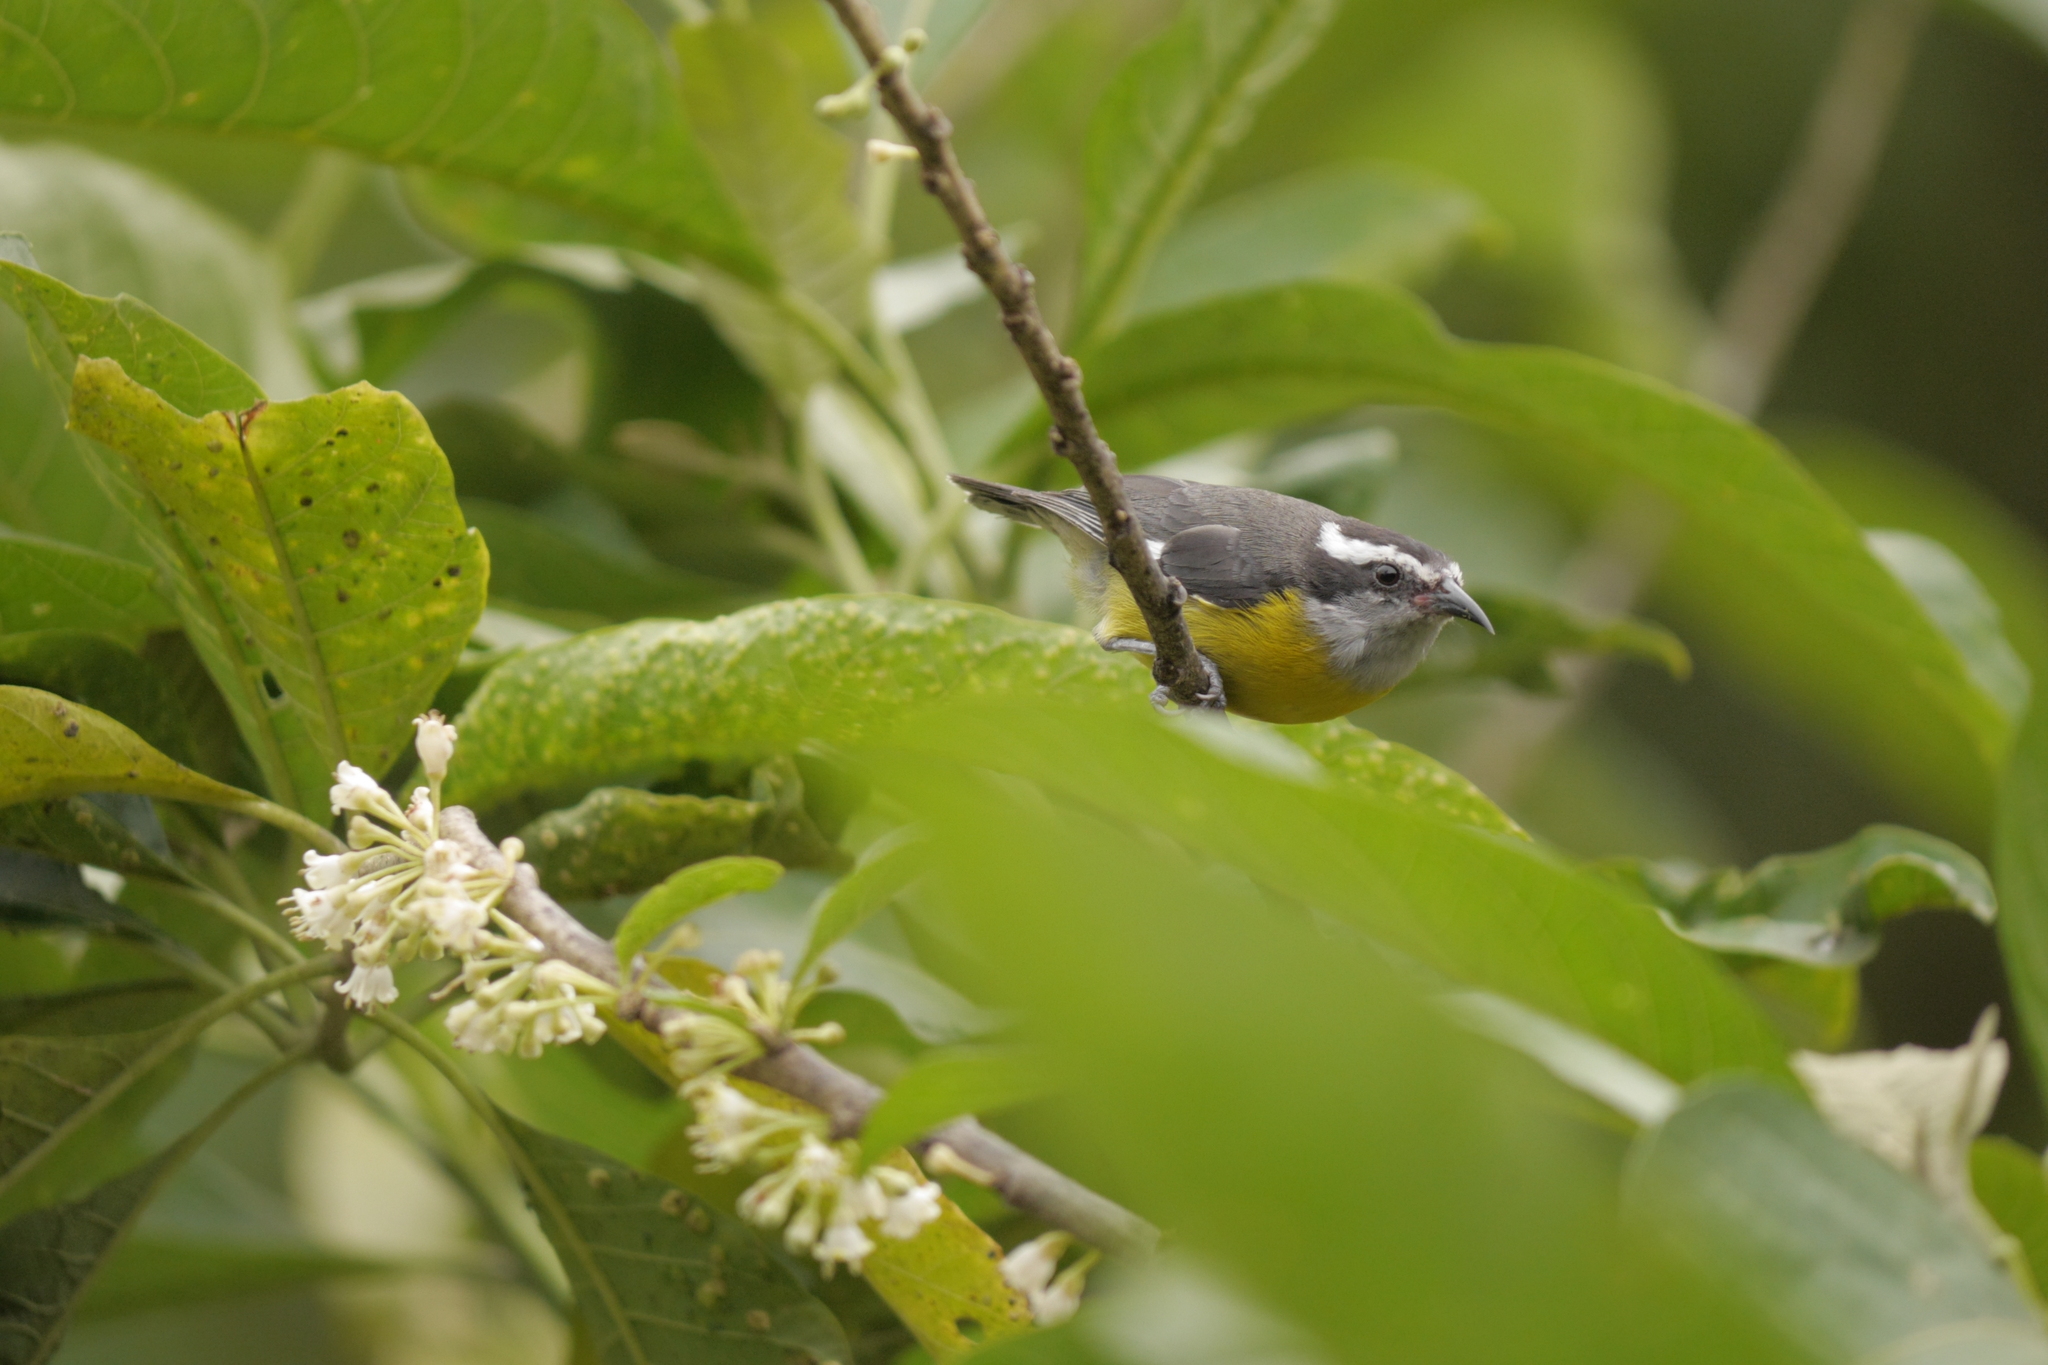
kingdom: Animalia
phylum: Chordata
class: Aves
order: Passeriformes
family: Thraupidae
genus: Coereba
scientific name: Coereba flaveola
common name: Bananaquit
